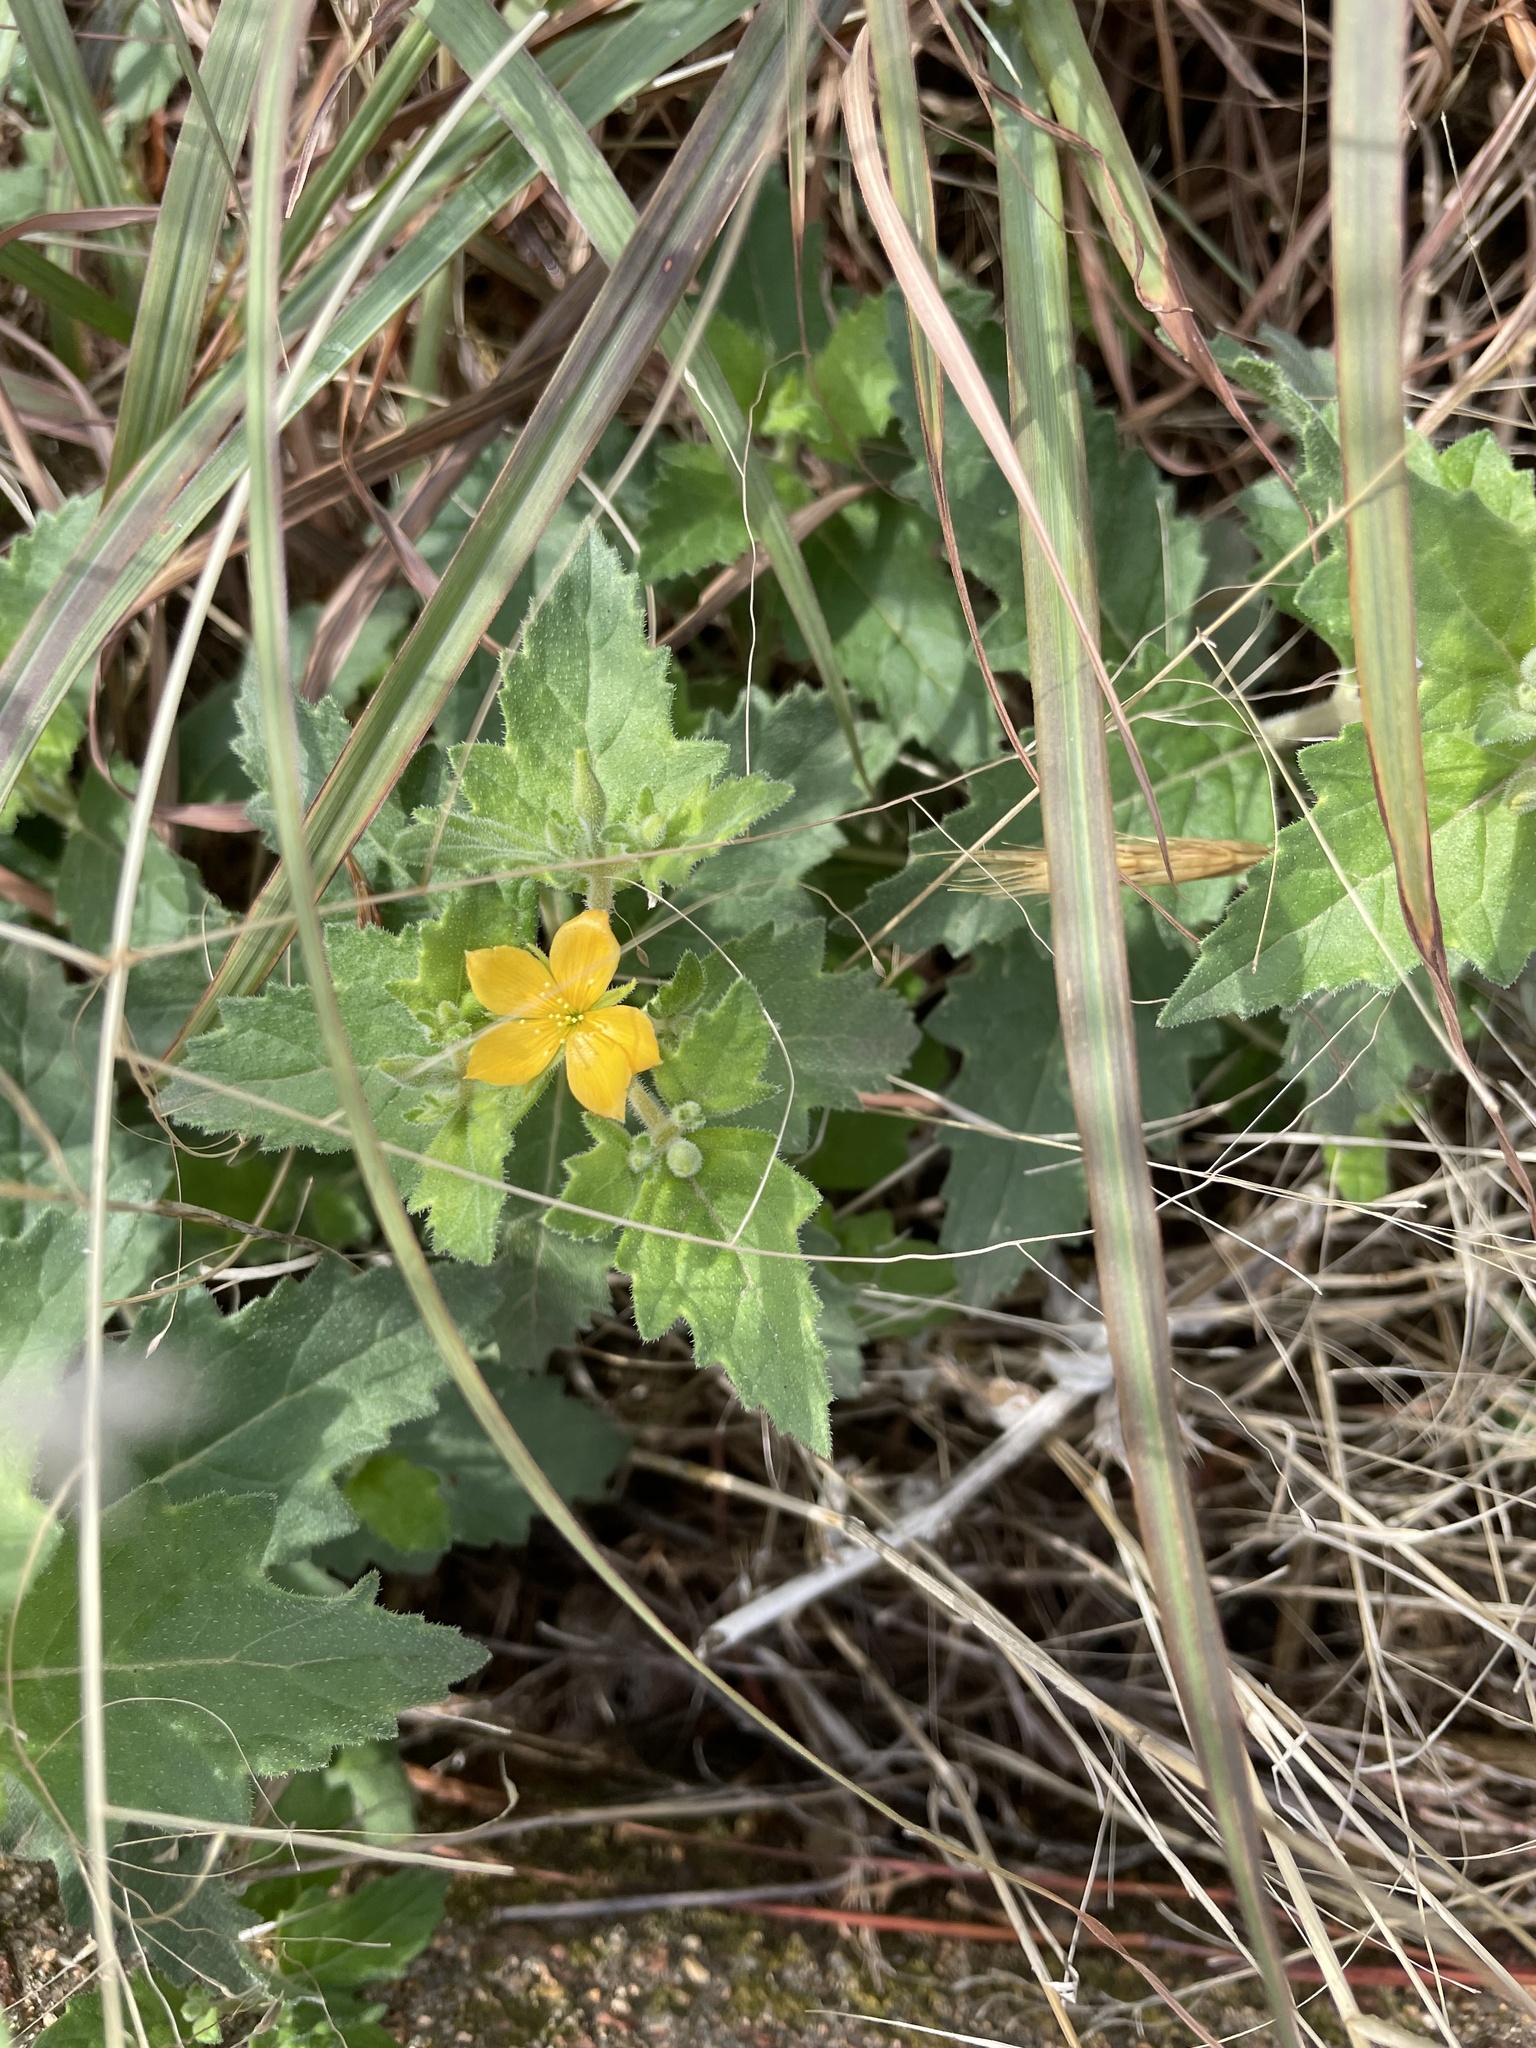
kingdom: Plantae
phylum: Tracheophyta
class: Magnoliopsida
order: Cornales
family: Loasaceae
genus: Mentzelia
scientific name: Mentzelia oligosperma
